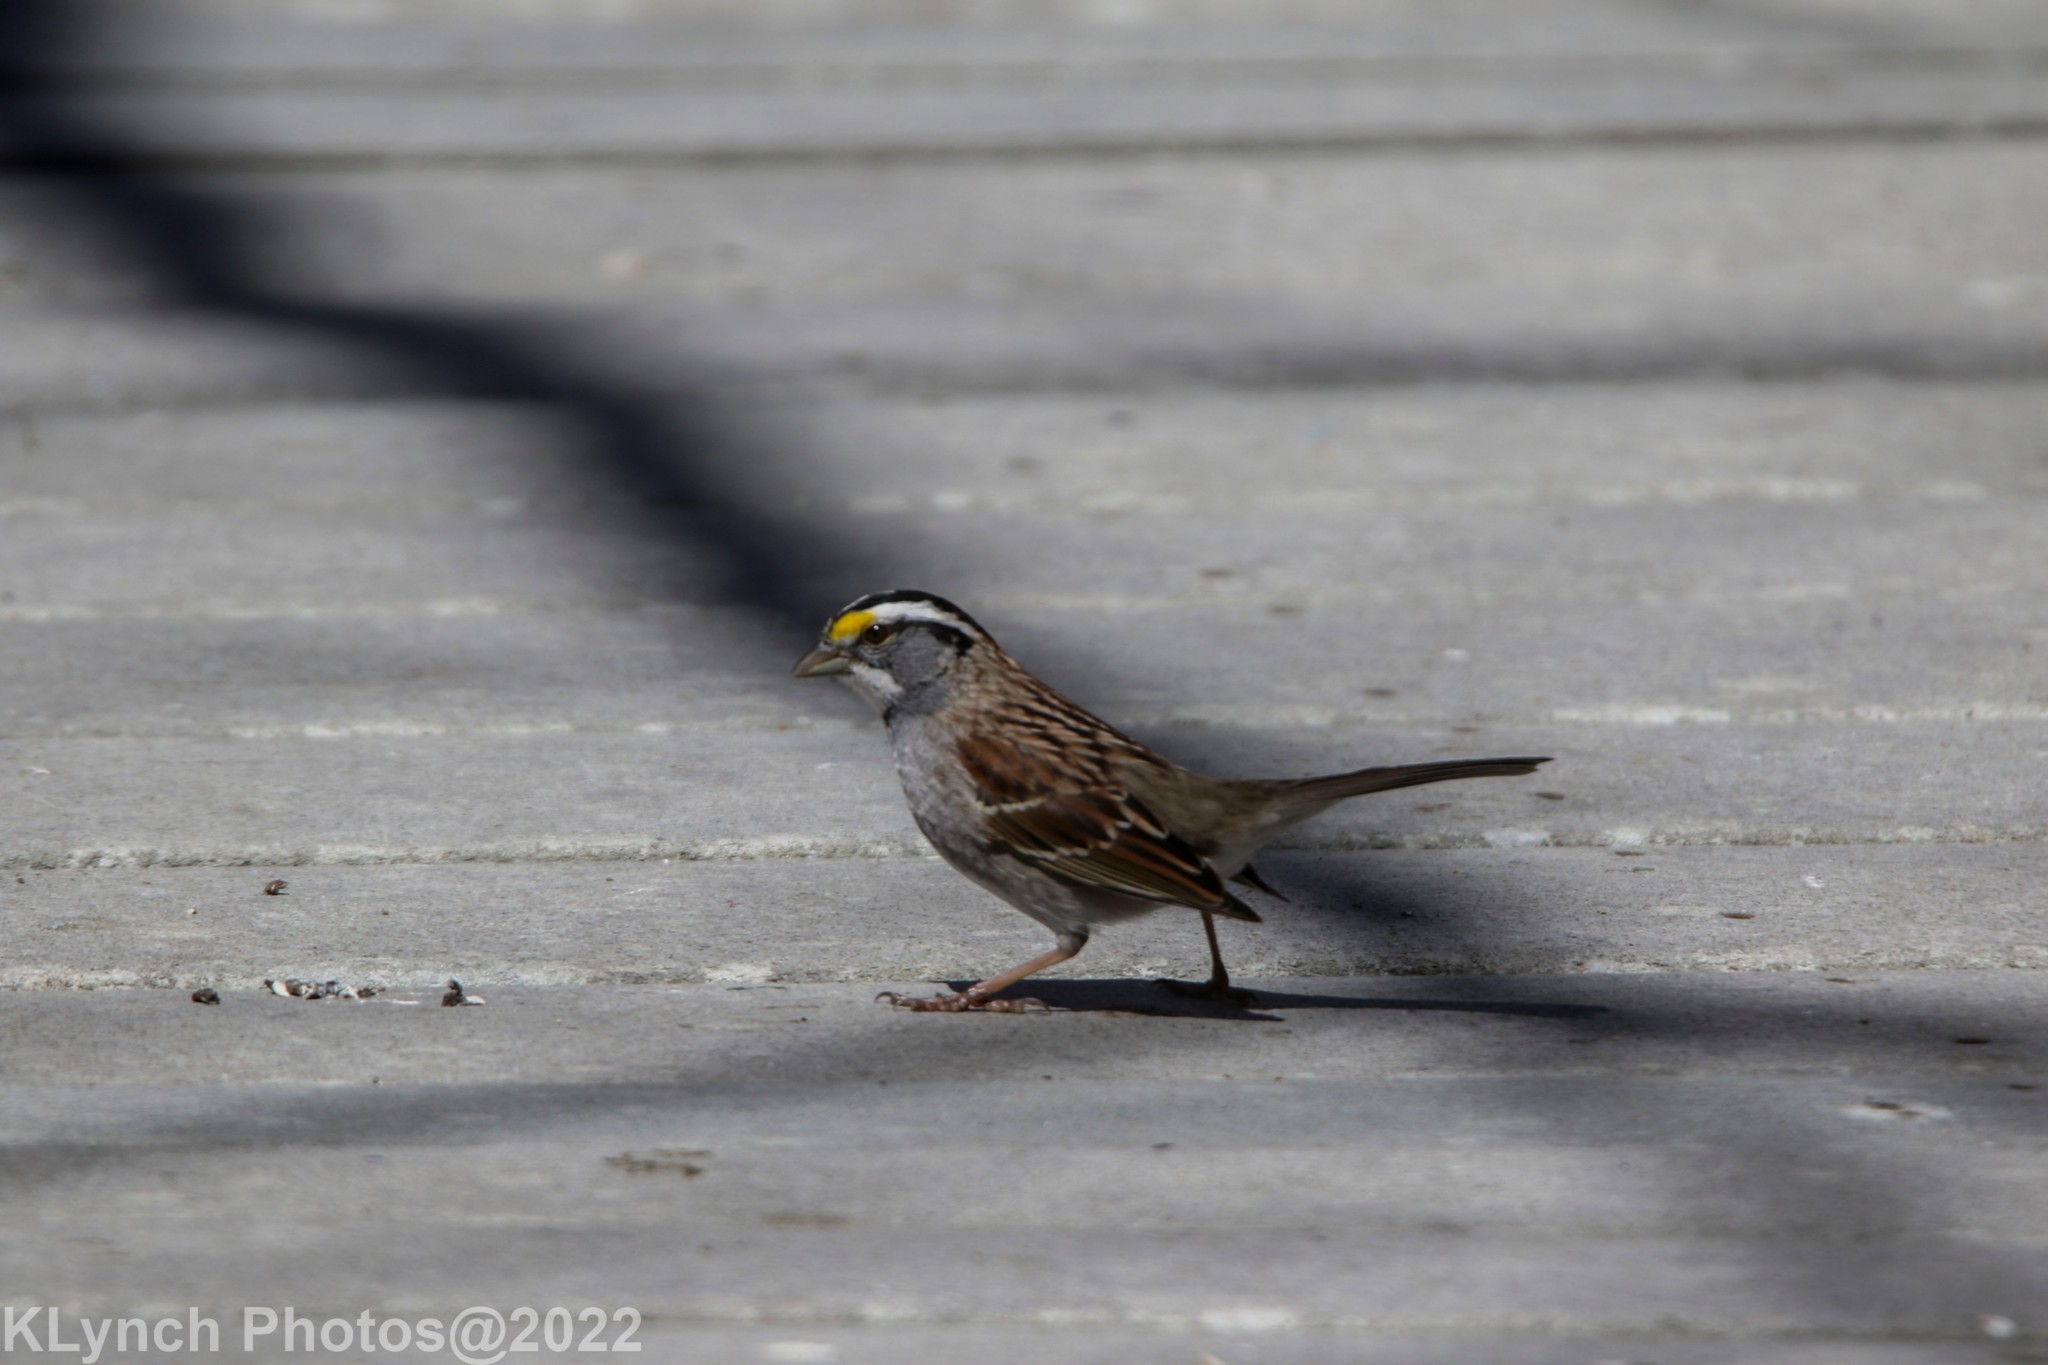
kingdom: Animalia
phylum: Chordata
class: Aves
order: Passeriformes
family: Passerellidae
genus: Zonotrichia
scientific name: Zonotrichia albicollis
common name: White-throated sparrow
